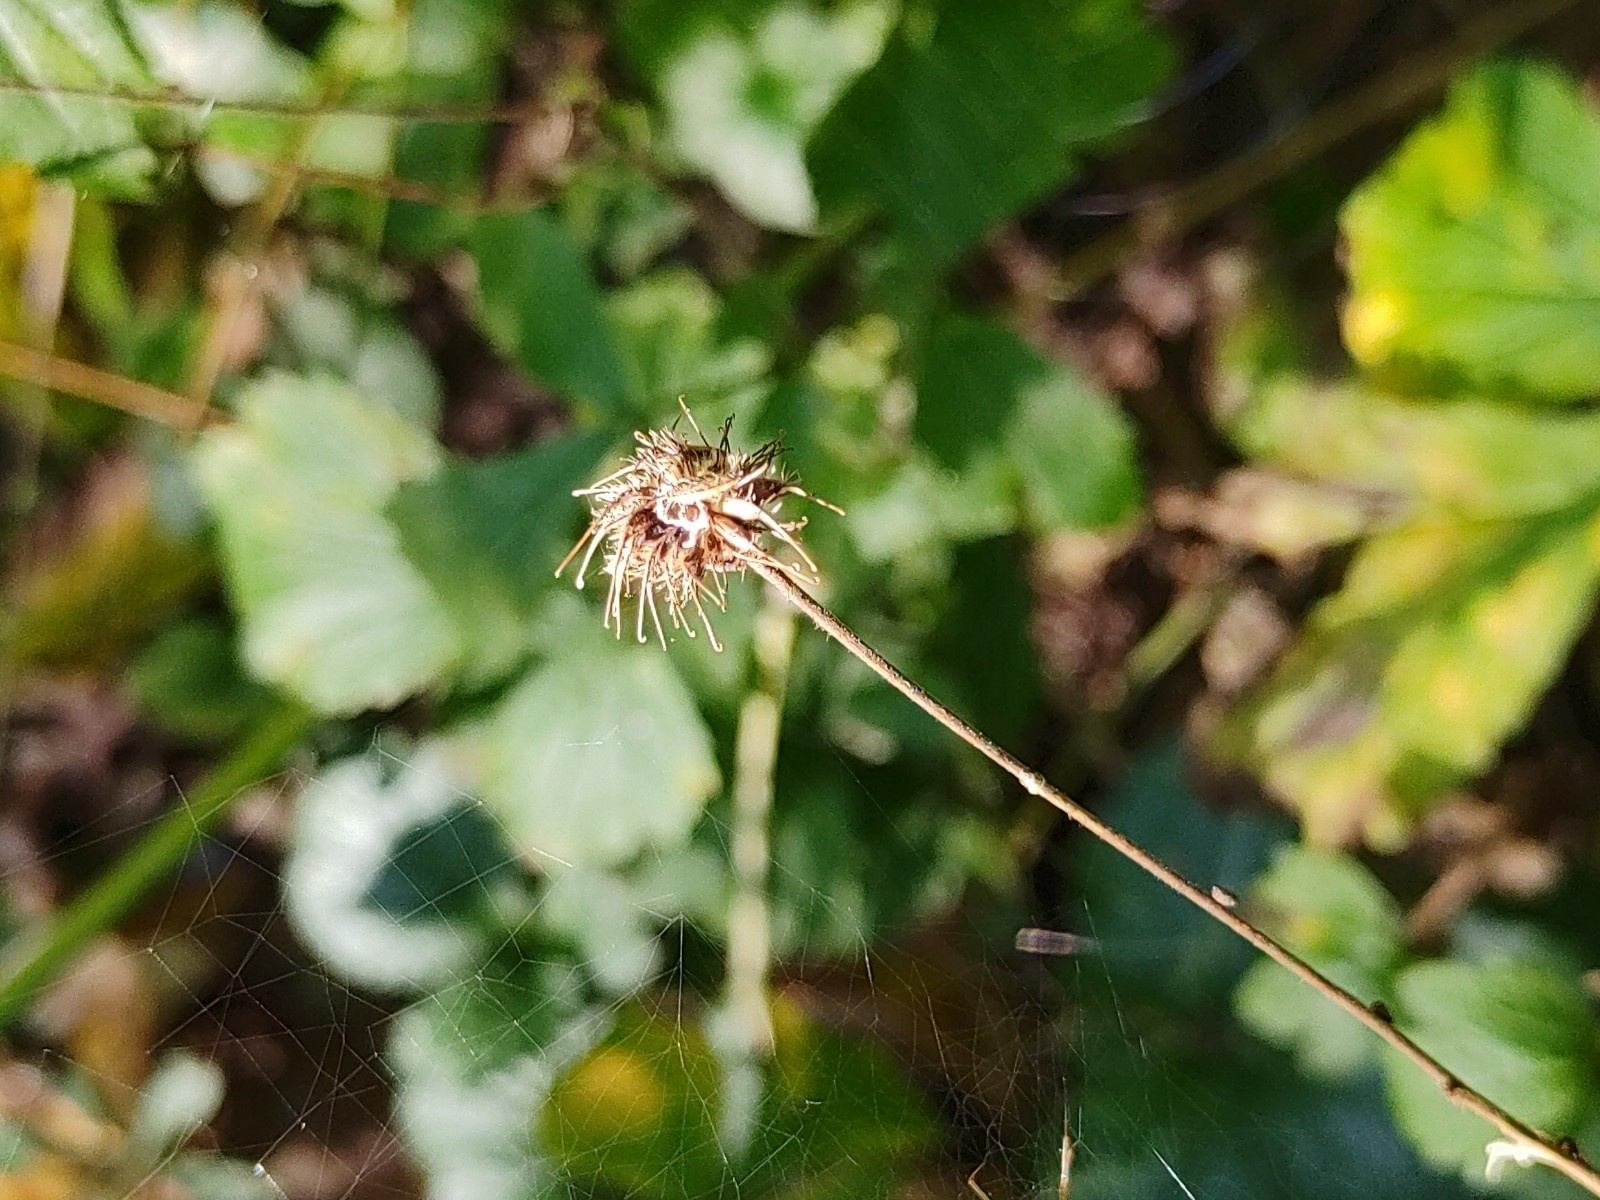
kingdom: Plantae
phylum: Tracheophyta
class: Magnoliopsida
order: Rosales
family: Rosaceae
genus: Geum
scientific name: Geum urbanum
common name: Wood avens
